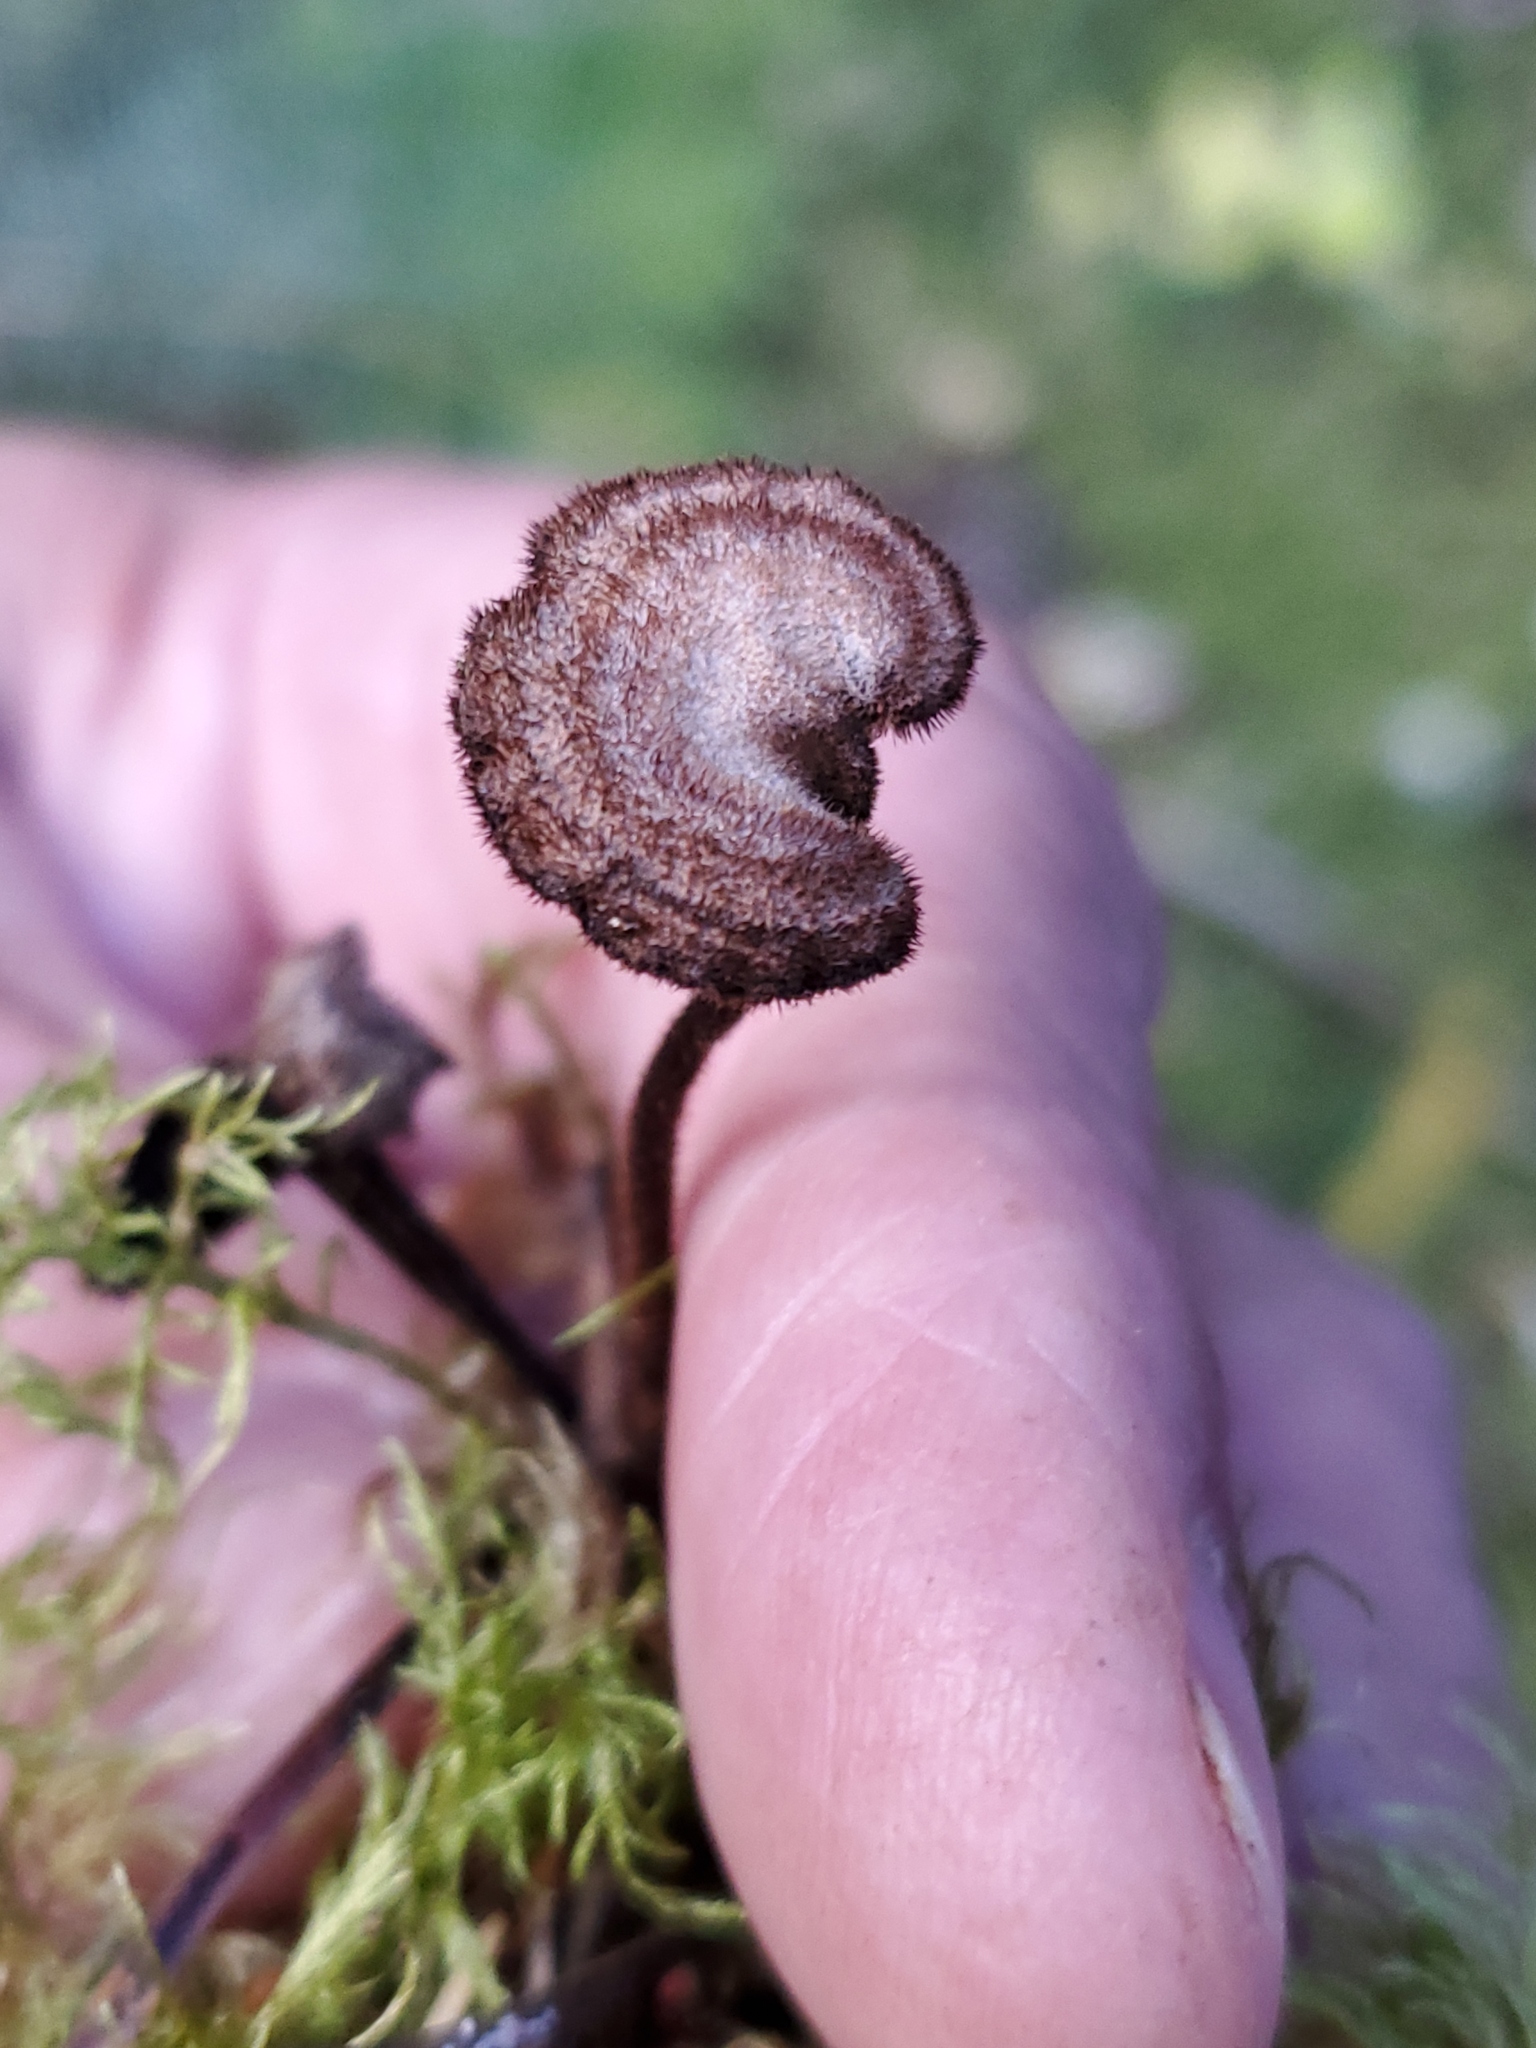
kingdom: Fungi
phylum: Basidiomycota
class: Agaricomycetes
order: Russulales
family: Auriscalpiaceae
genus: Auriscalpium
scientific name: Auriscalpium vulgare
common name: Earpick fungus
